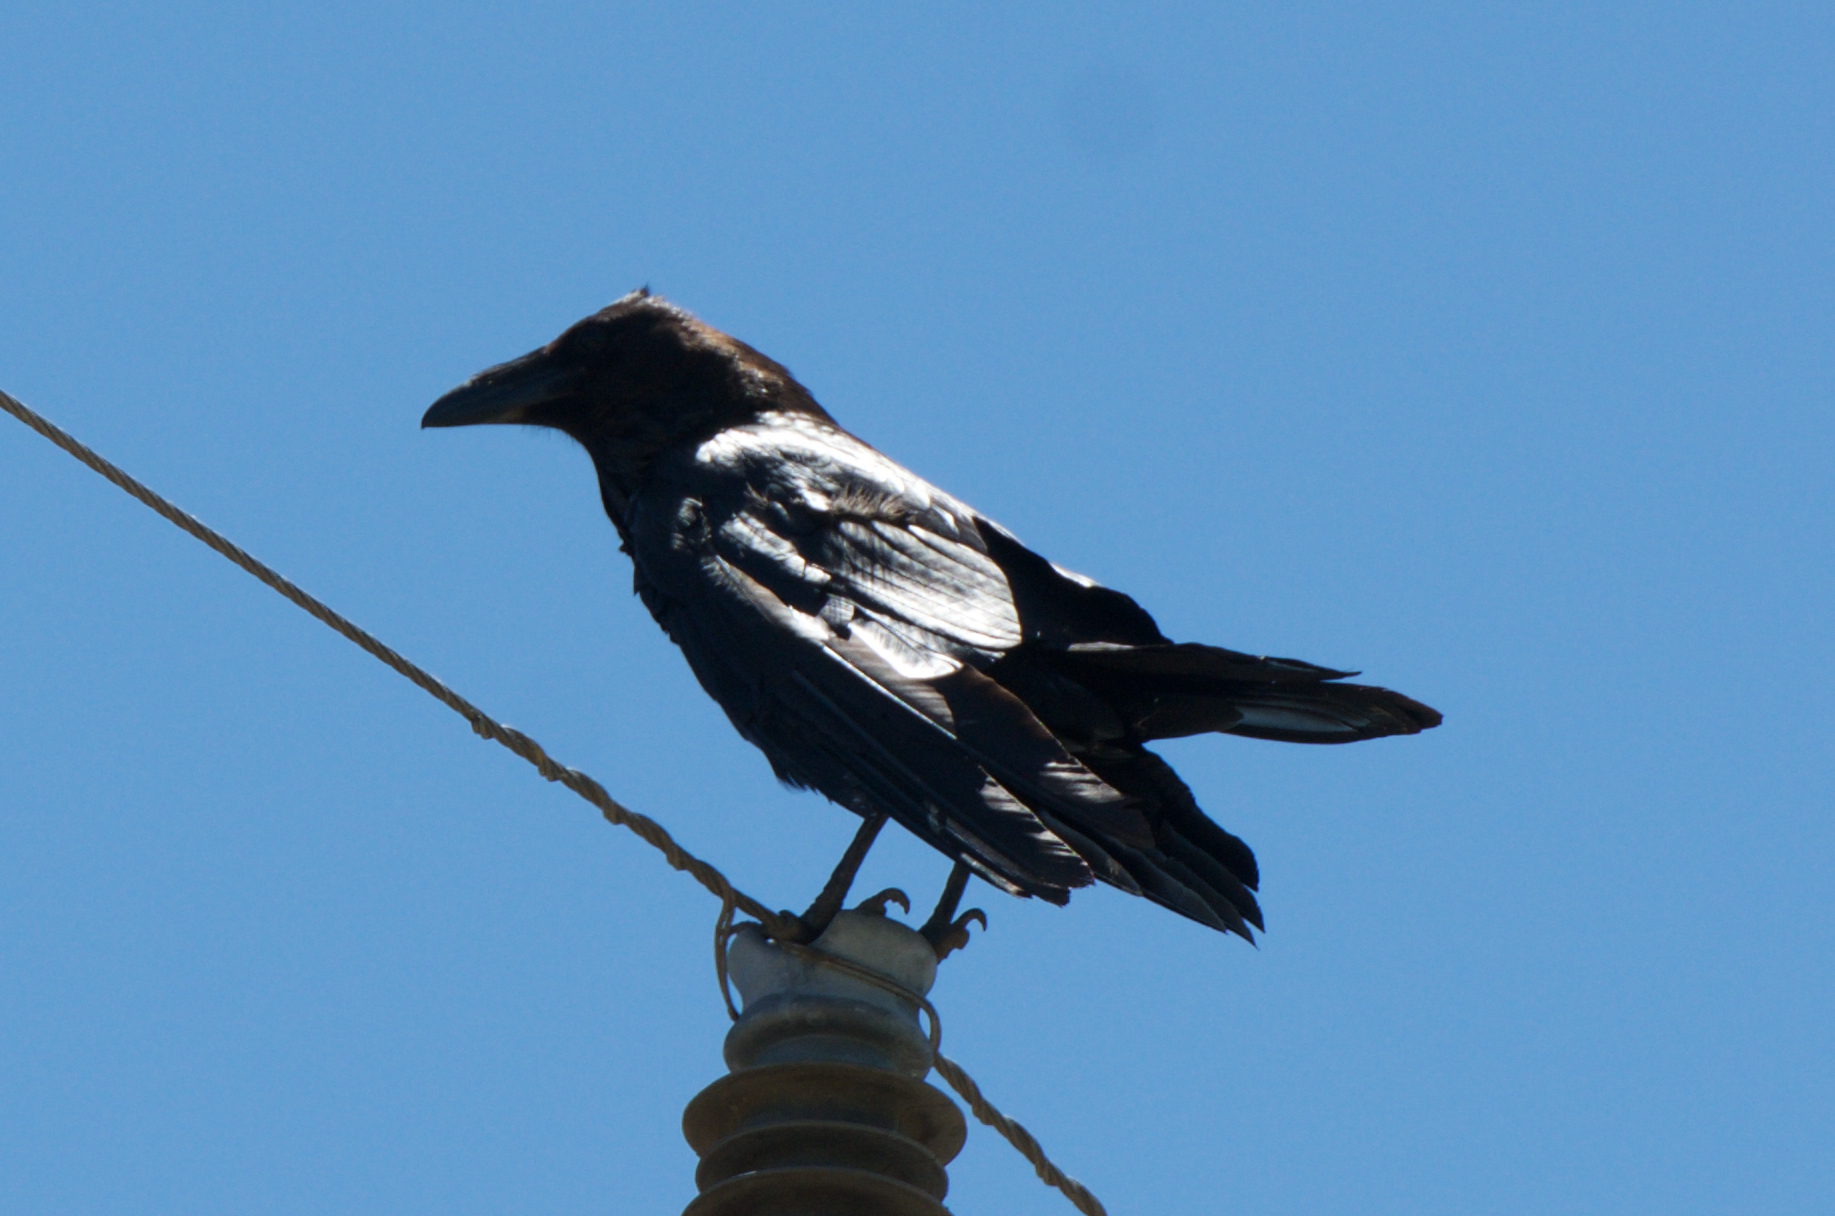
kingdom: Animalia
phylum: Chordata
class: Aves
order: Passeriformes
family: Corvidae
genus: Corvus
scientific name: Corvus corax
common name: Common raven
